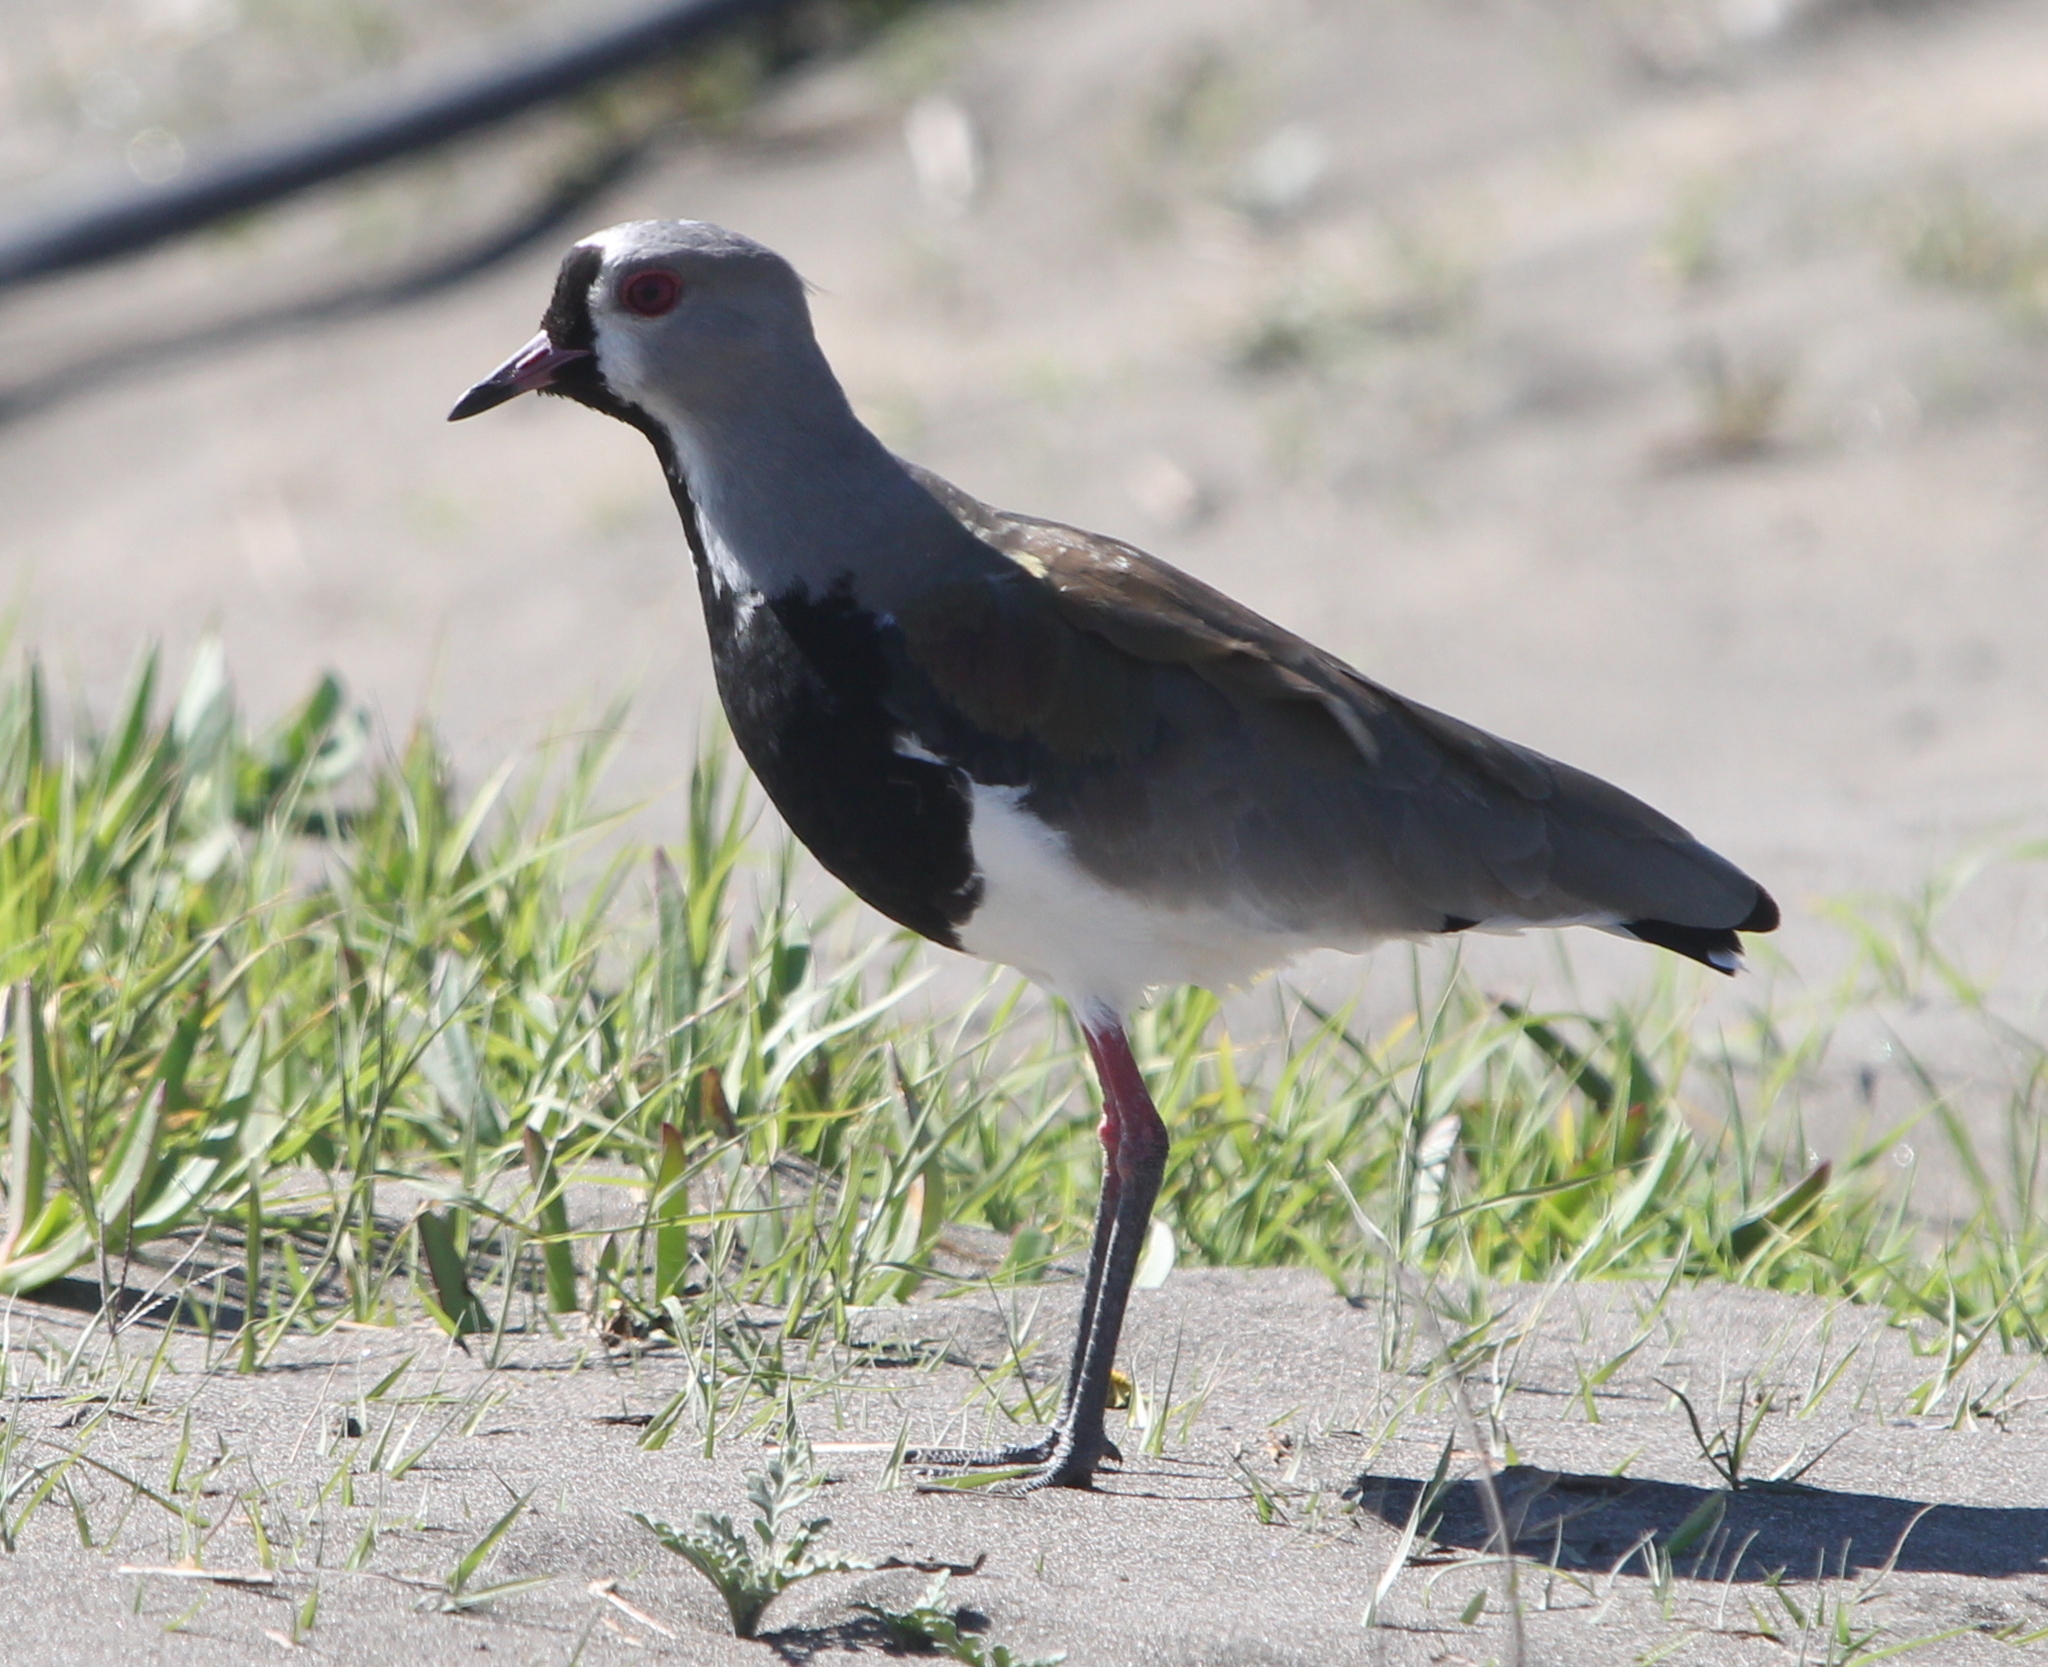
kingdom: Animalia
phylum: Chordata
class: Aves
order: Charadriiformes
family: Charadriidae
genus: Vanellus
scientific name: Vanellus chilensis
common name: Southern lapwing
